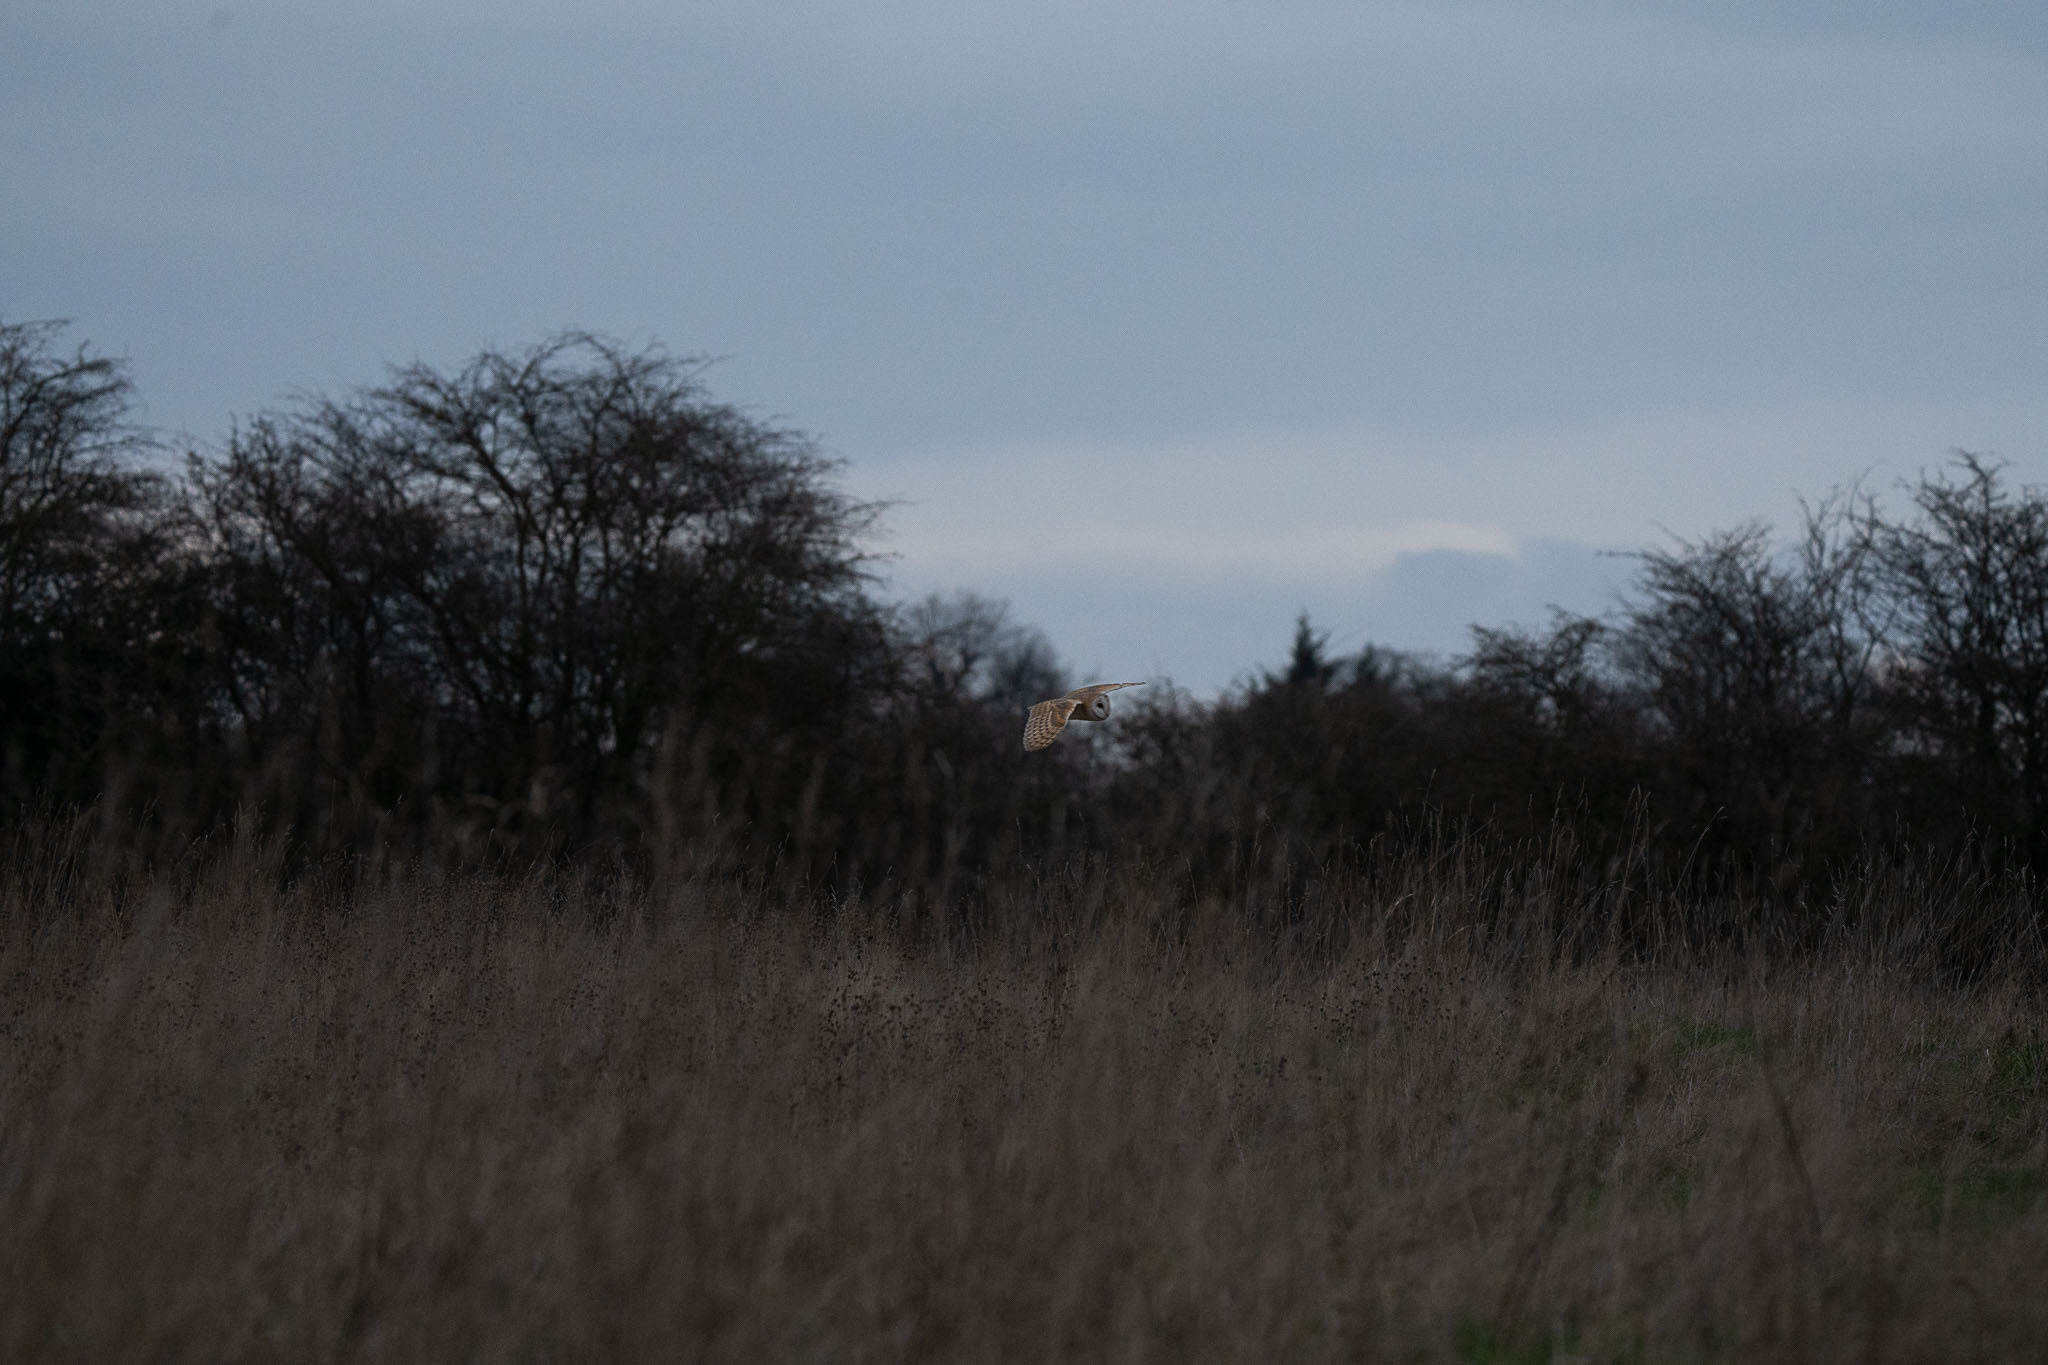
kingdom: Animalia
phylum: Chordata
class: Aves
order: Strigiformes
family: Tytonidae
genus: Tyto
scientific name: Tyto alba
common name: Barn owl
